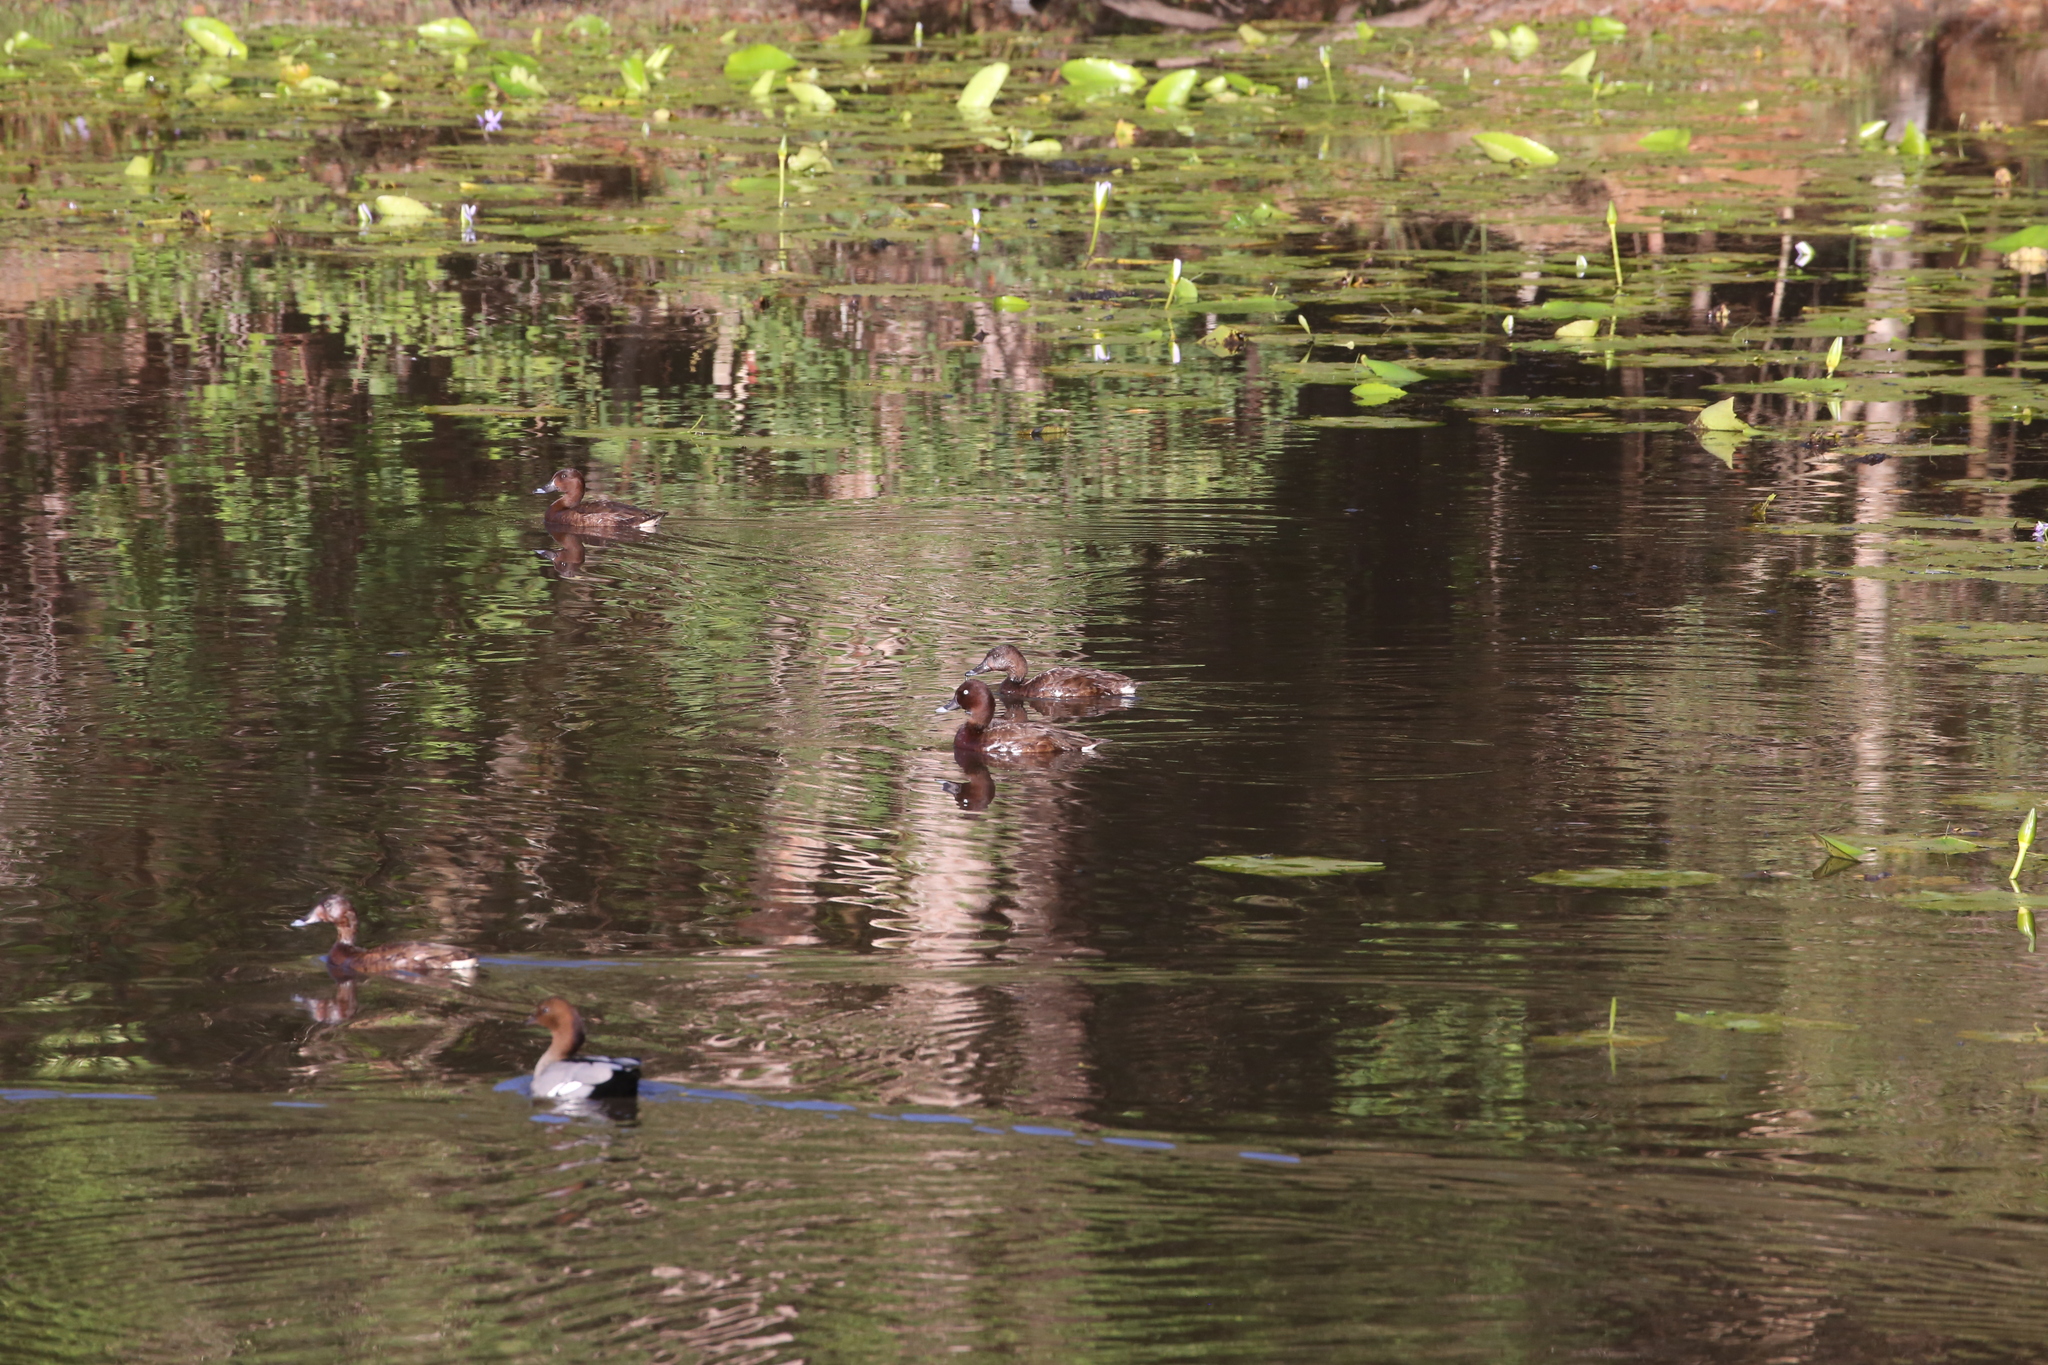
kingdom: Animalia
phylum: Chordata
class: Aves
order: Anseriformes
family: Anatidae
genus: Aythya
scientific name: Aythya australis
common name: Hardhead
